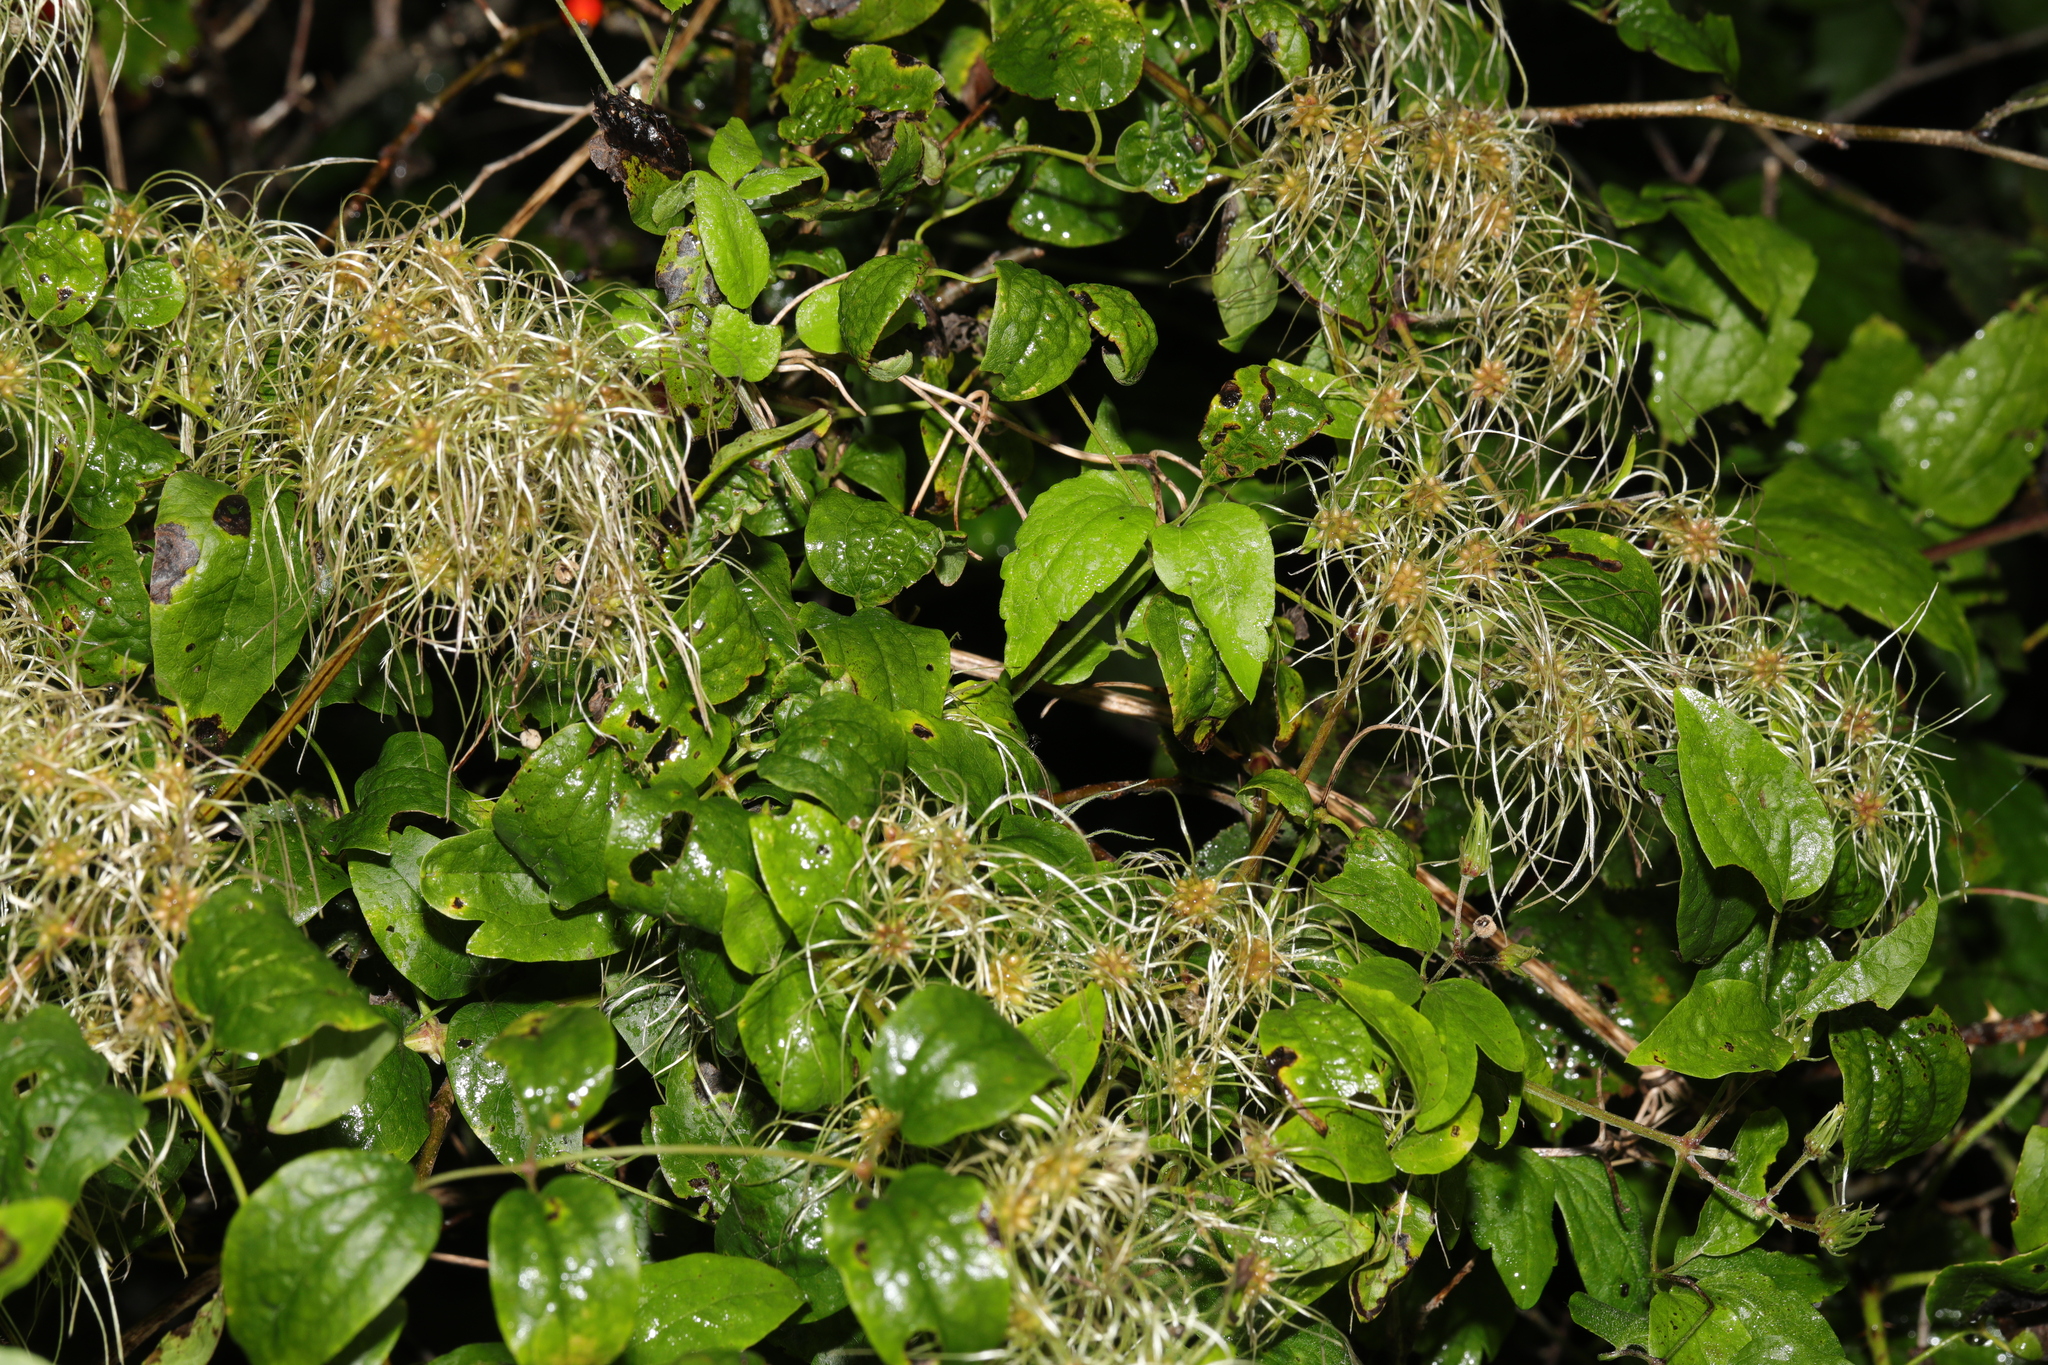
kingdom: Plantae
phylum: Tracheophyta
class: Magnoliopsida
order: Ranunculales
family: Ranunculaceae
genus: Clematis
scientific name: Clematis vitalba
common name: Evergreen clematis
